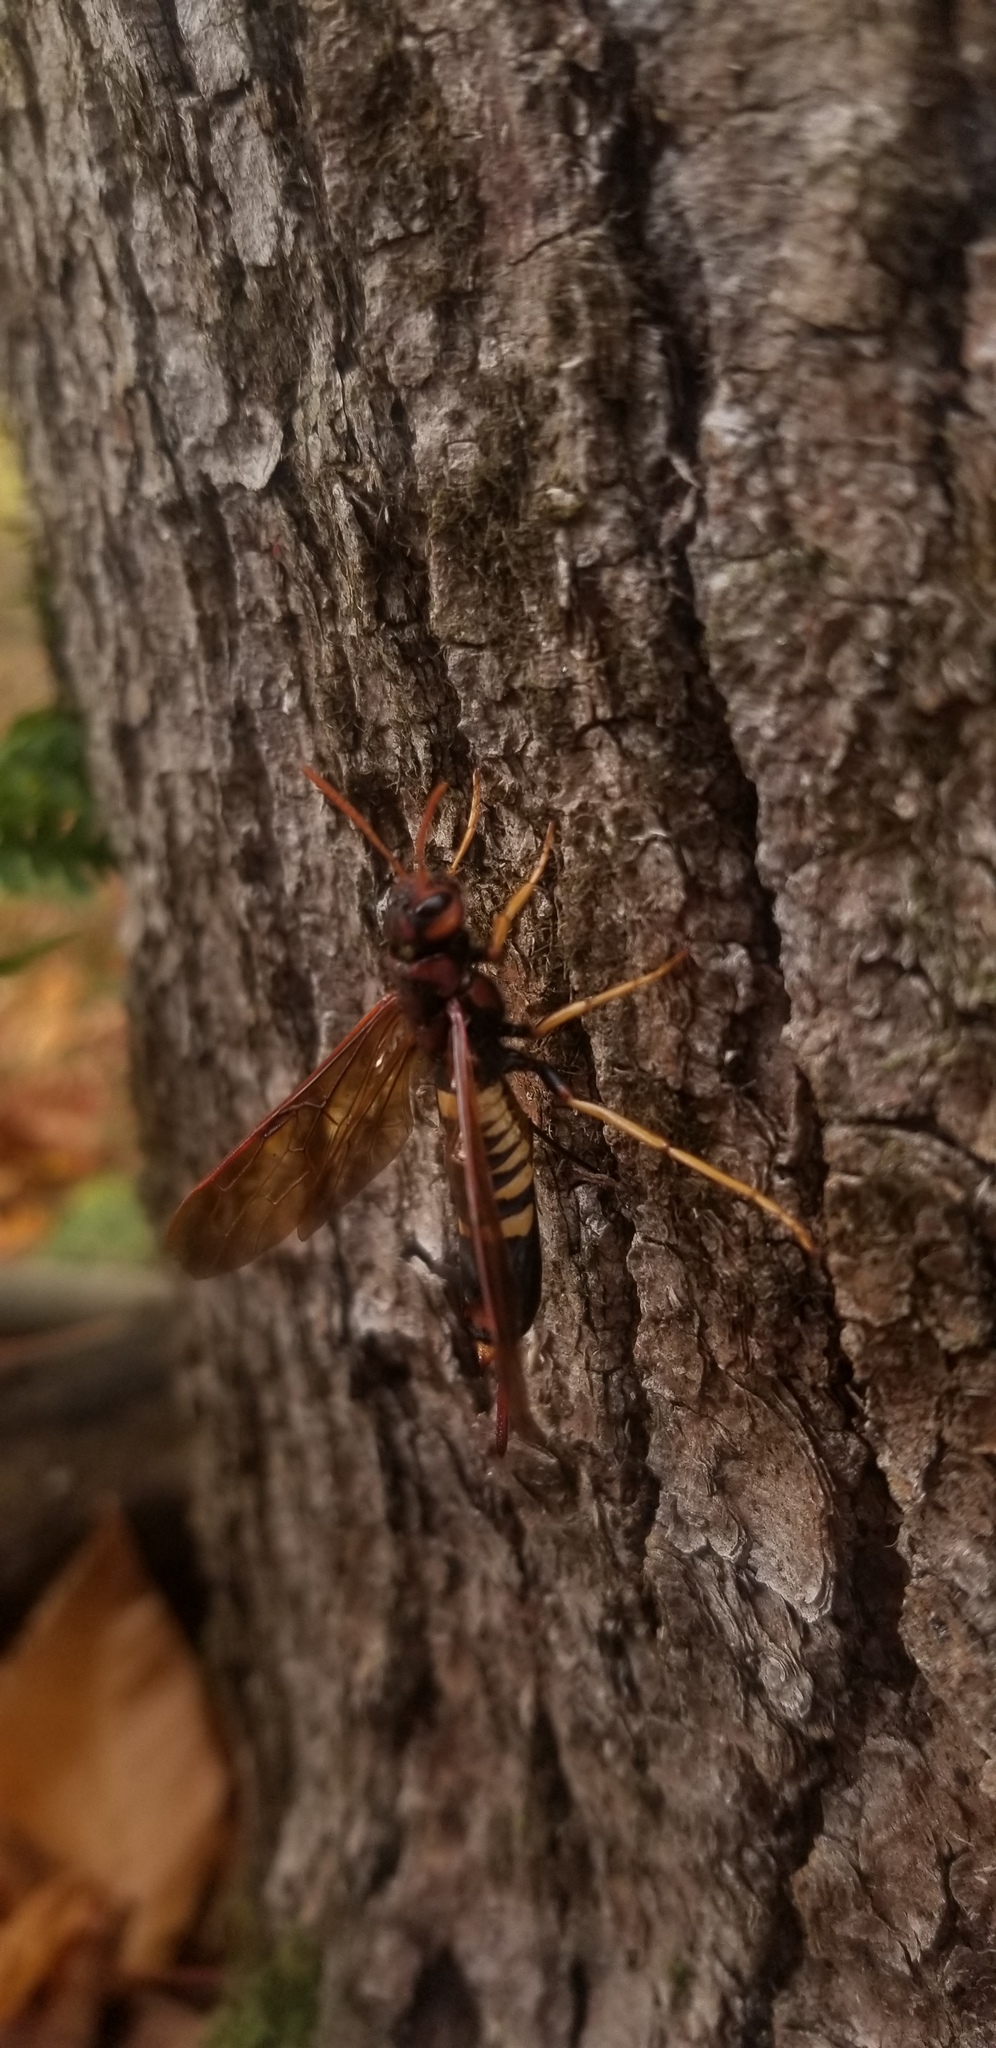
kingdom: Animalia
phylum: Arthropoda
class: Insecta
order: Hymenoptera
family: Siricidae
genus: Tremex
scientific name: Tremex columba
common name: Wasp
